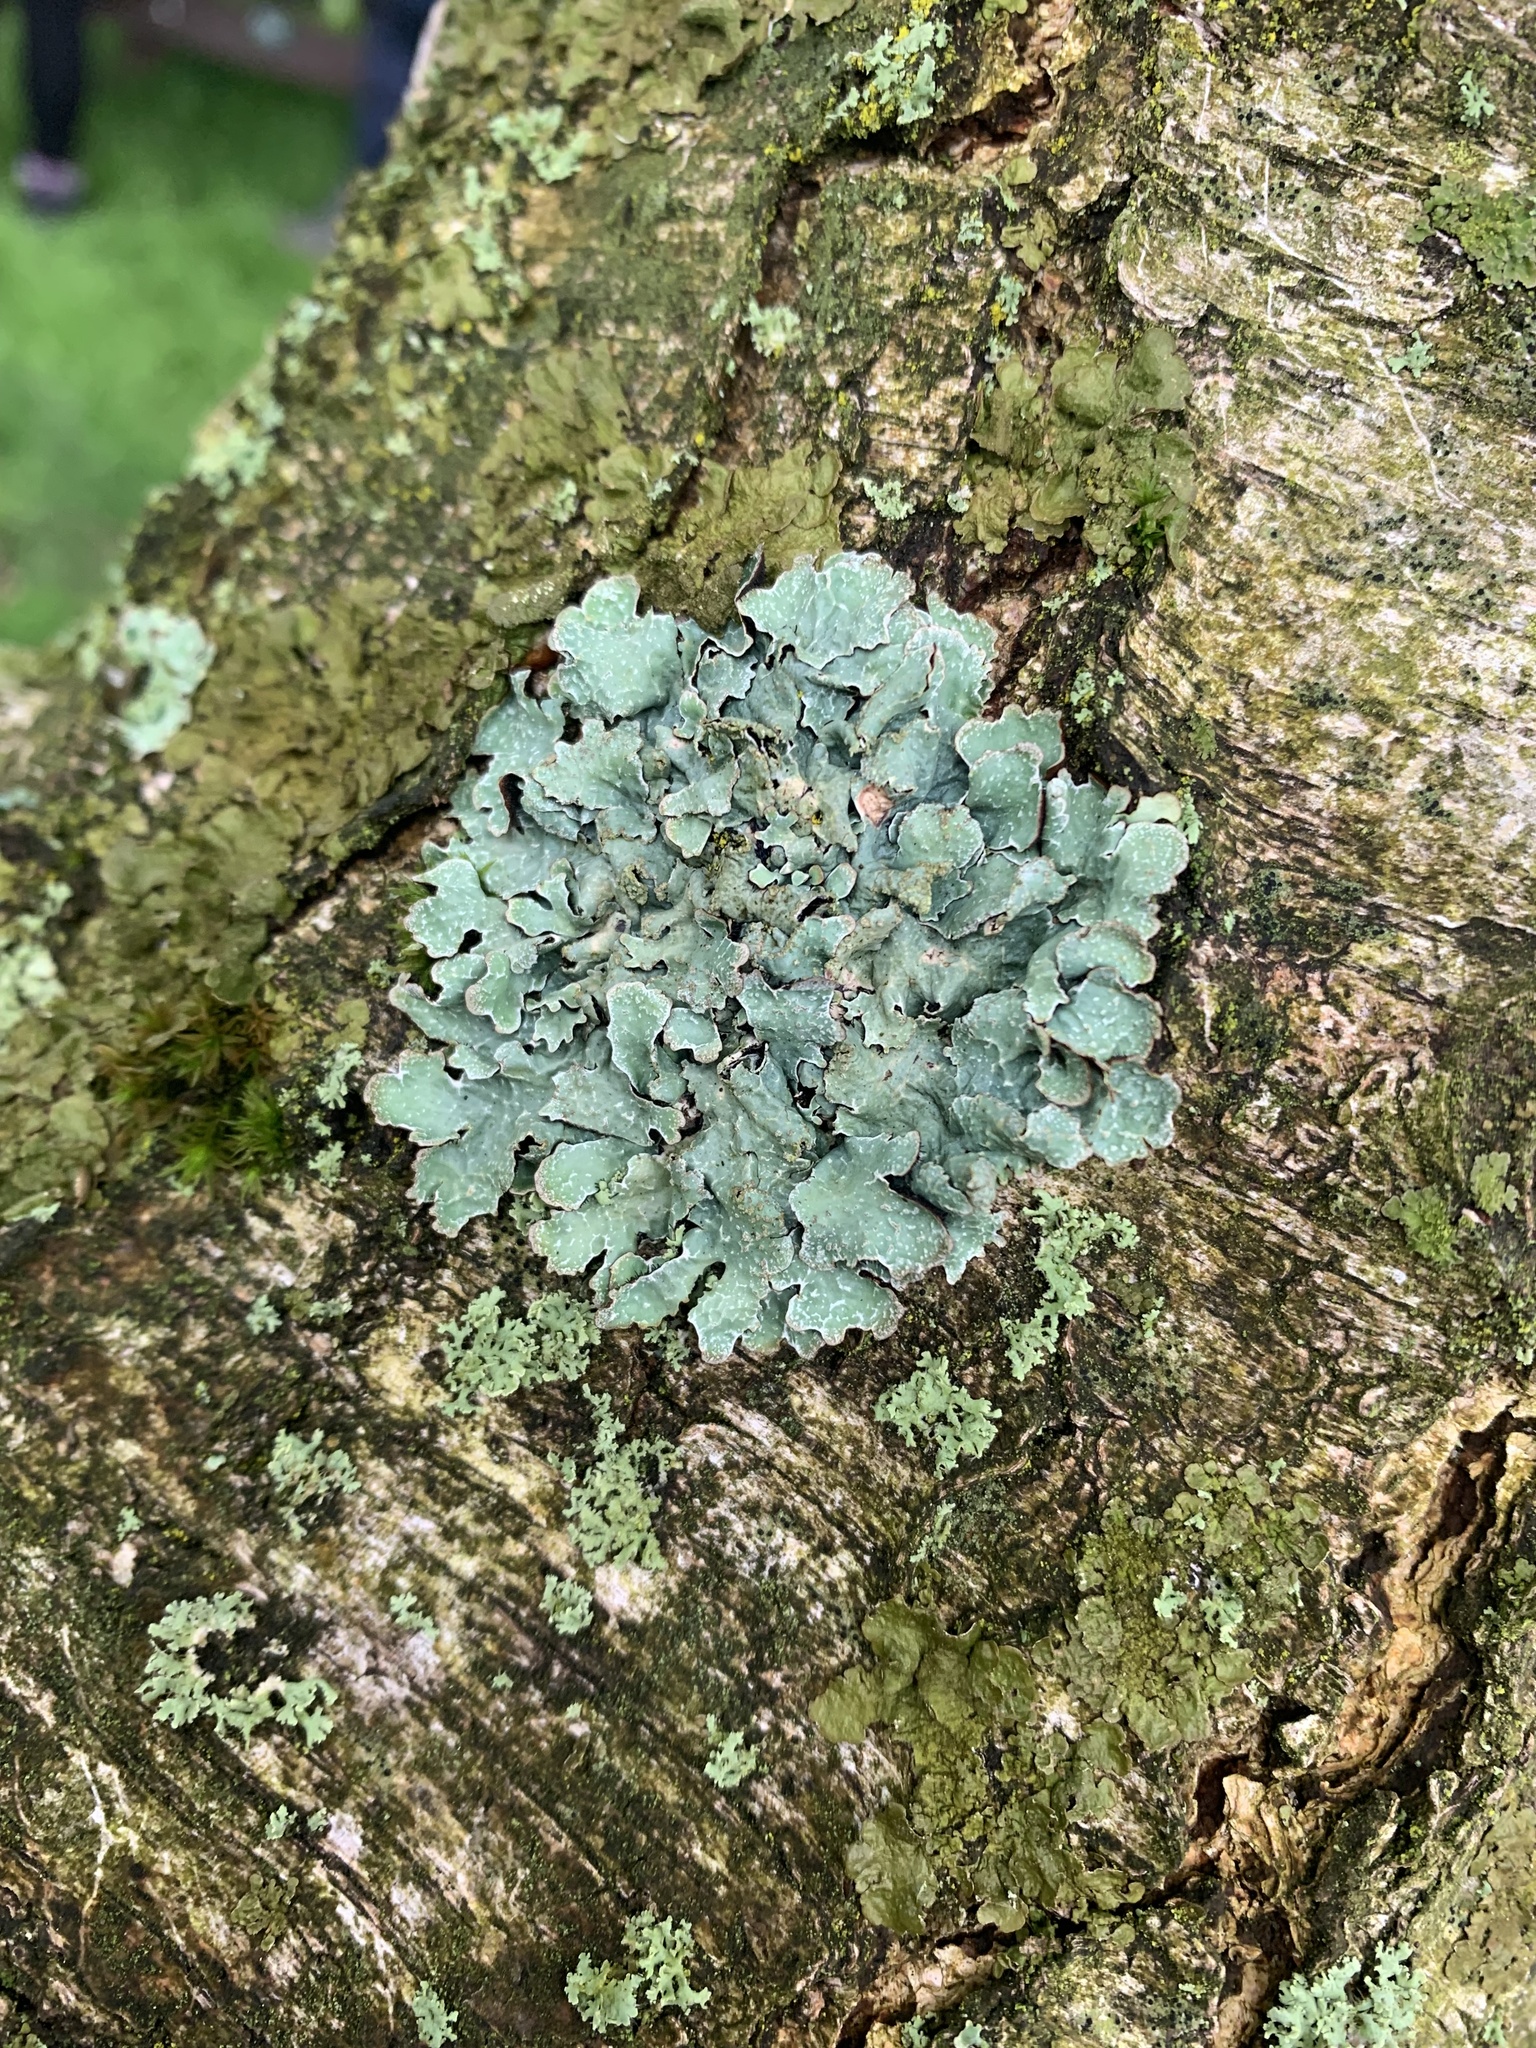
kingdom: Fungi
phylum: Ascomycota
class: Lecanoromycetes
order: Lecanorales
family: Parmeliaceae
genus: Parmelia
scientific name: Parmelia sulcata
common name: Netted shield lichen
